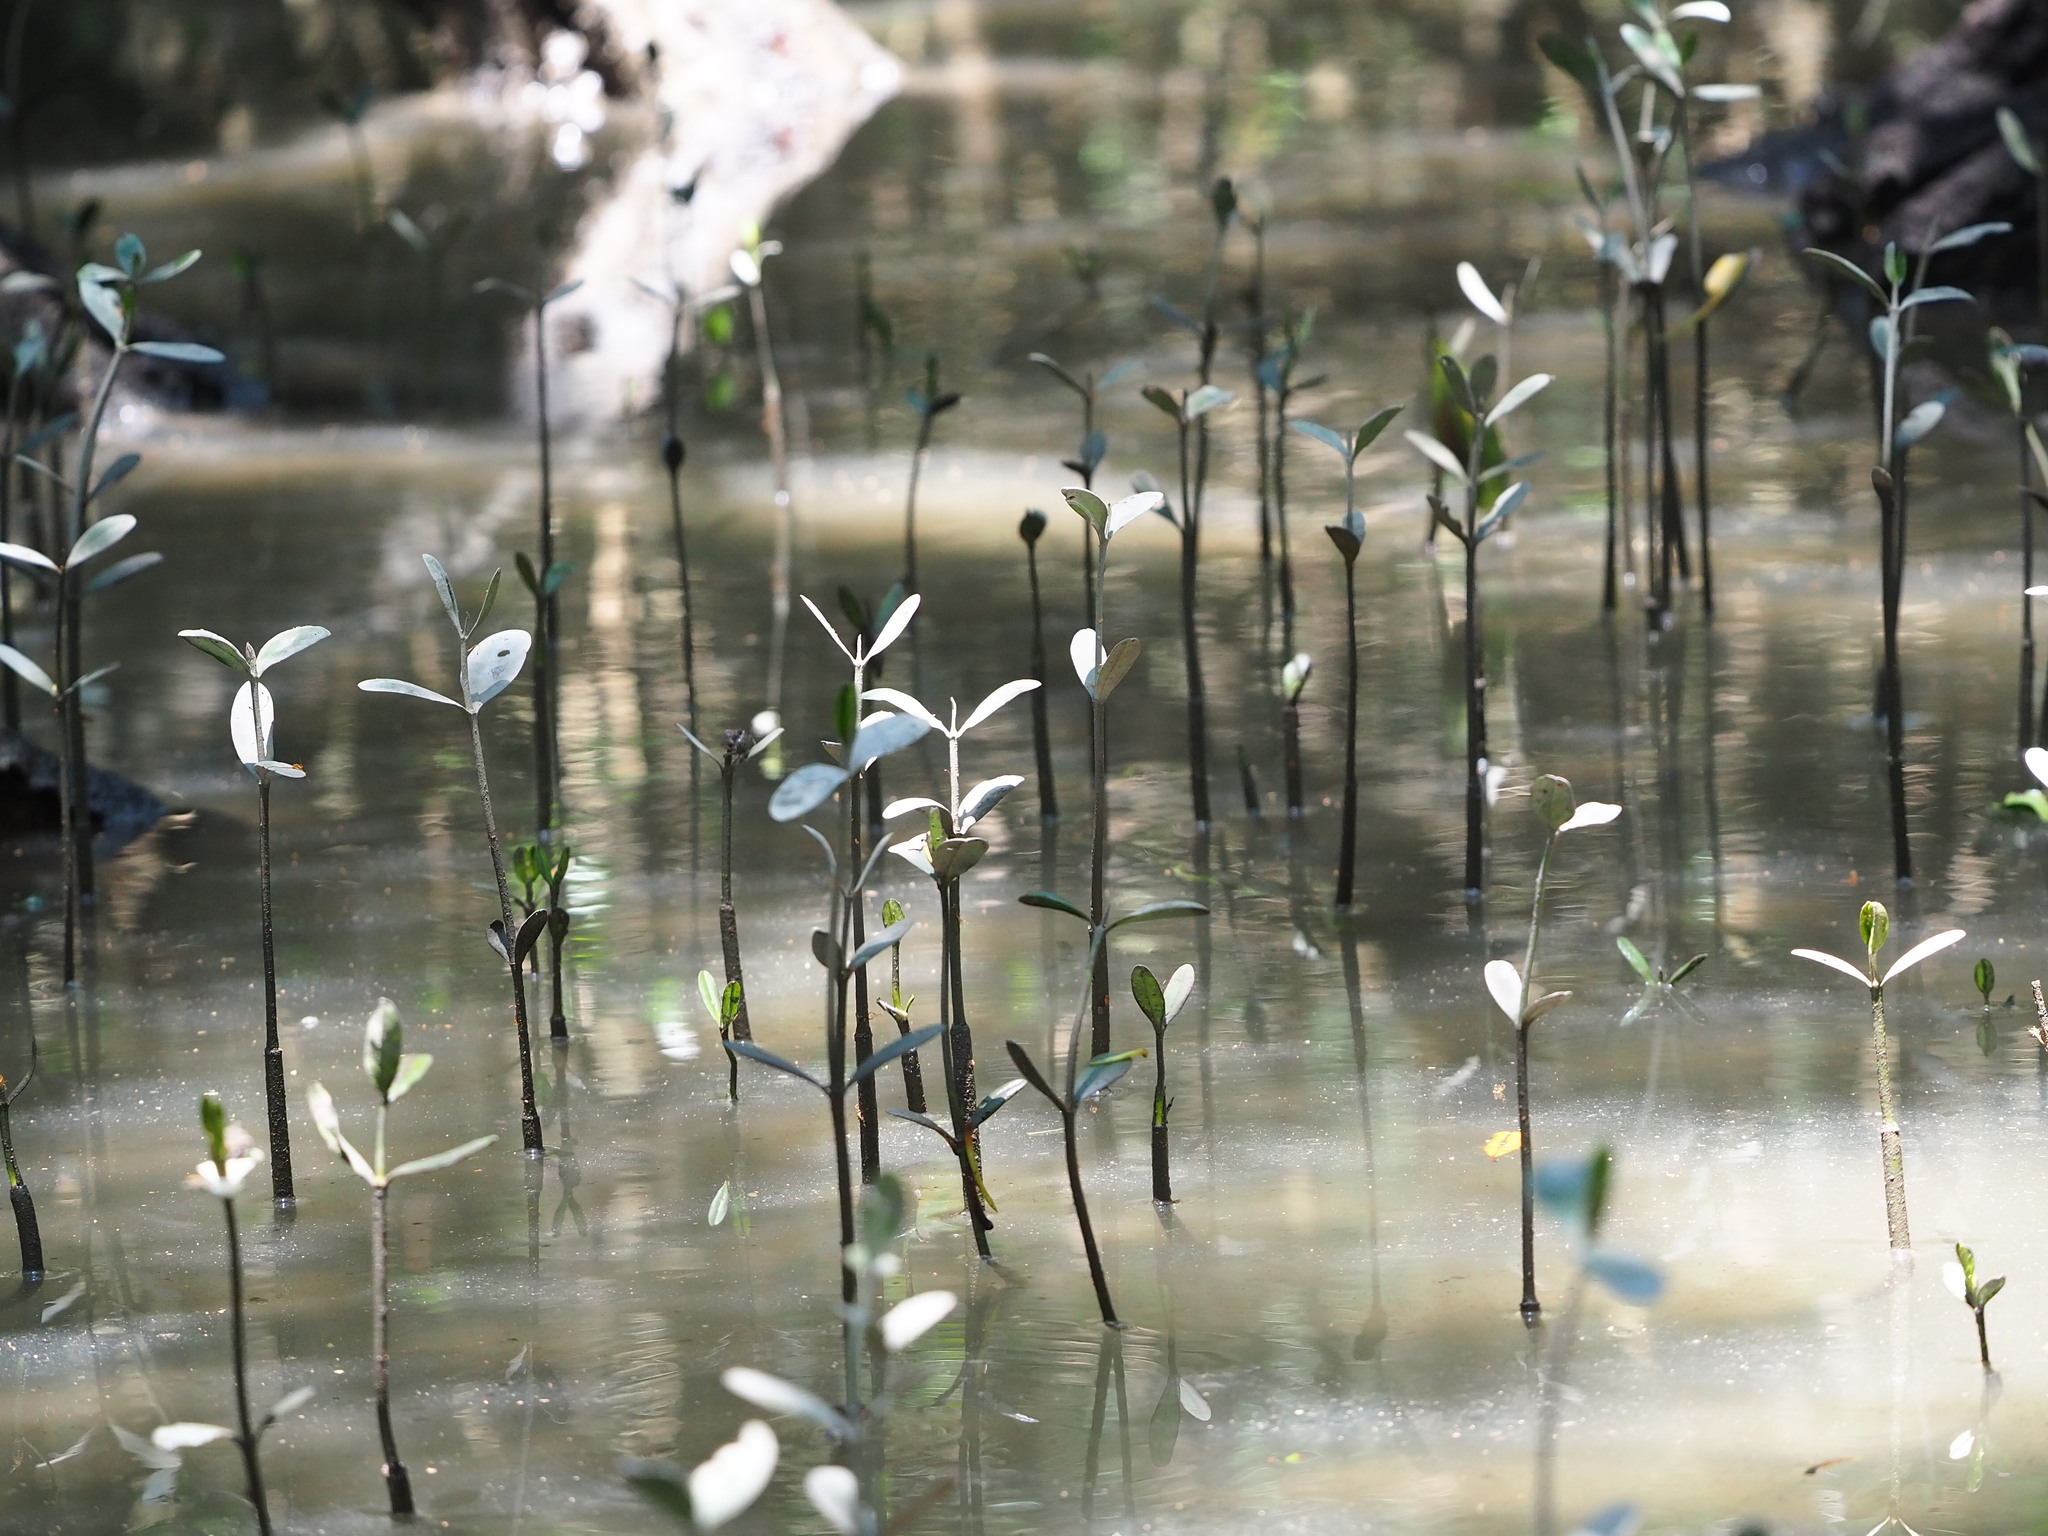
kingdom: Plantae
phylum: Tracheophyta
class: Magnoliopsida
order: Malpighiales
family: Rhizophoraceae
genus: Kandelia
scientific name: Kandelia obovata
